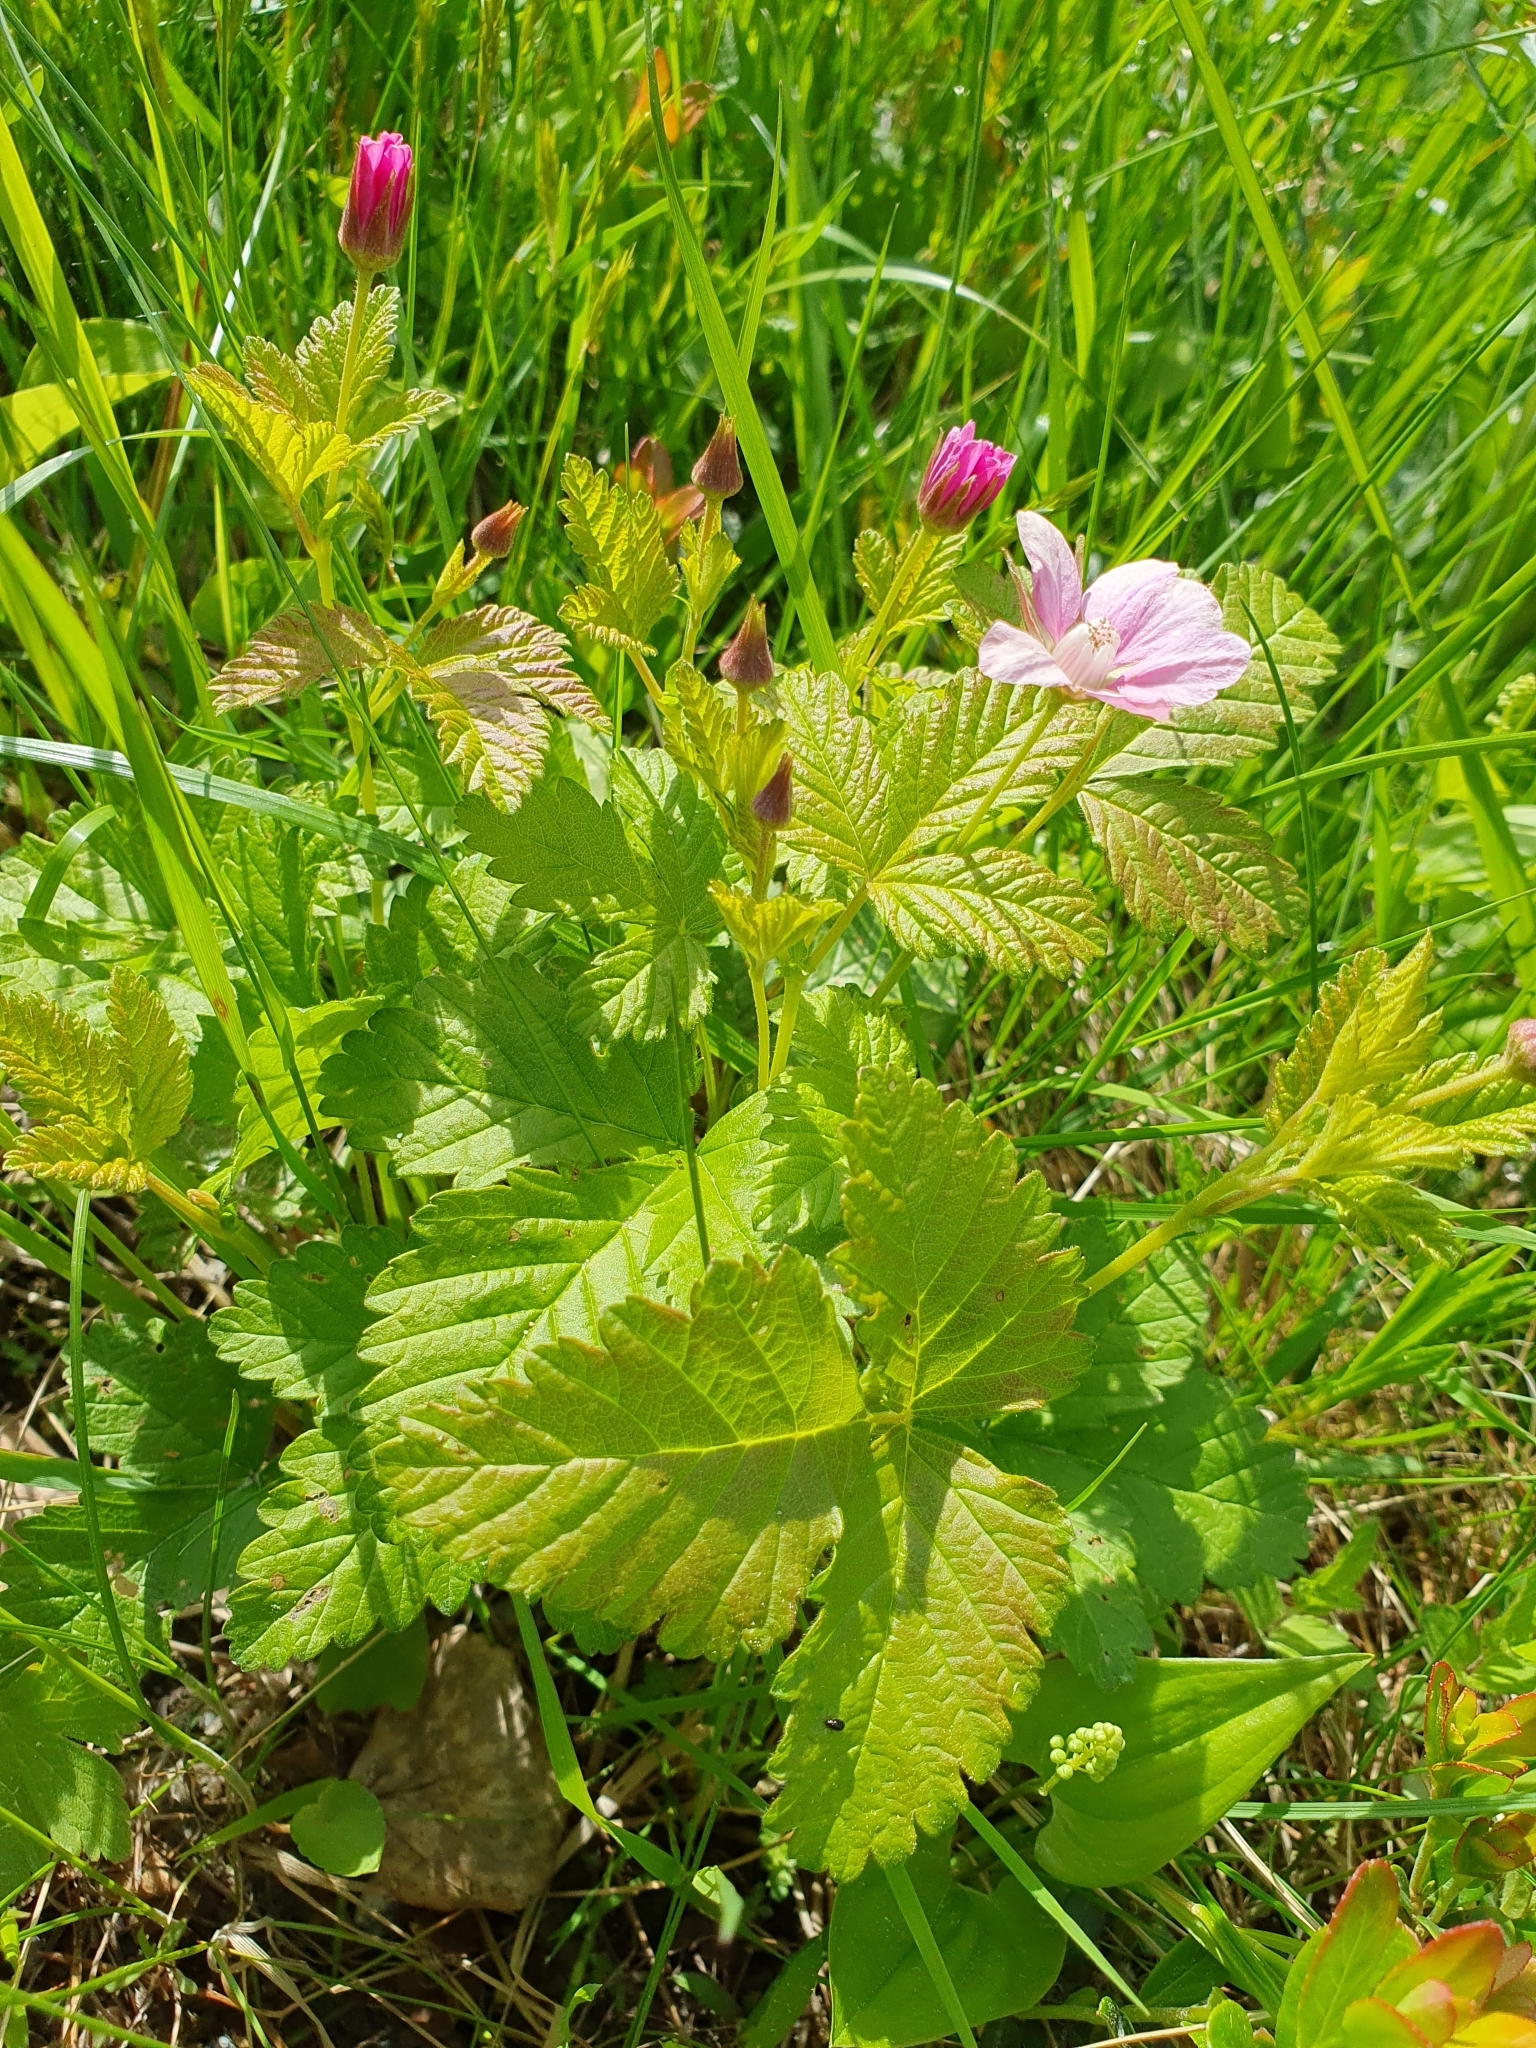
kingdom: Plantae
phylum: Tracheophyta
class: Magnoliopsida
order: Rosales
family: Rosaceae
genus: Rubus
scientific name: Rubus arcticus
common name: Arctic bramble
